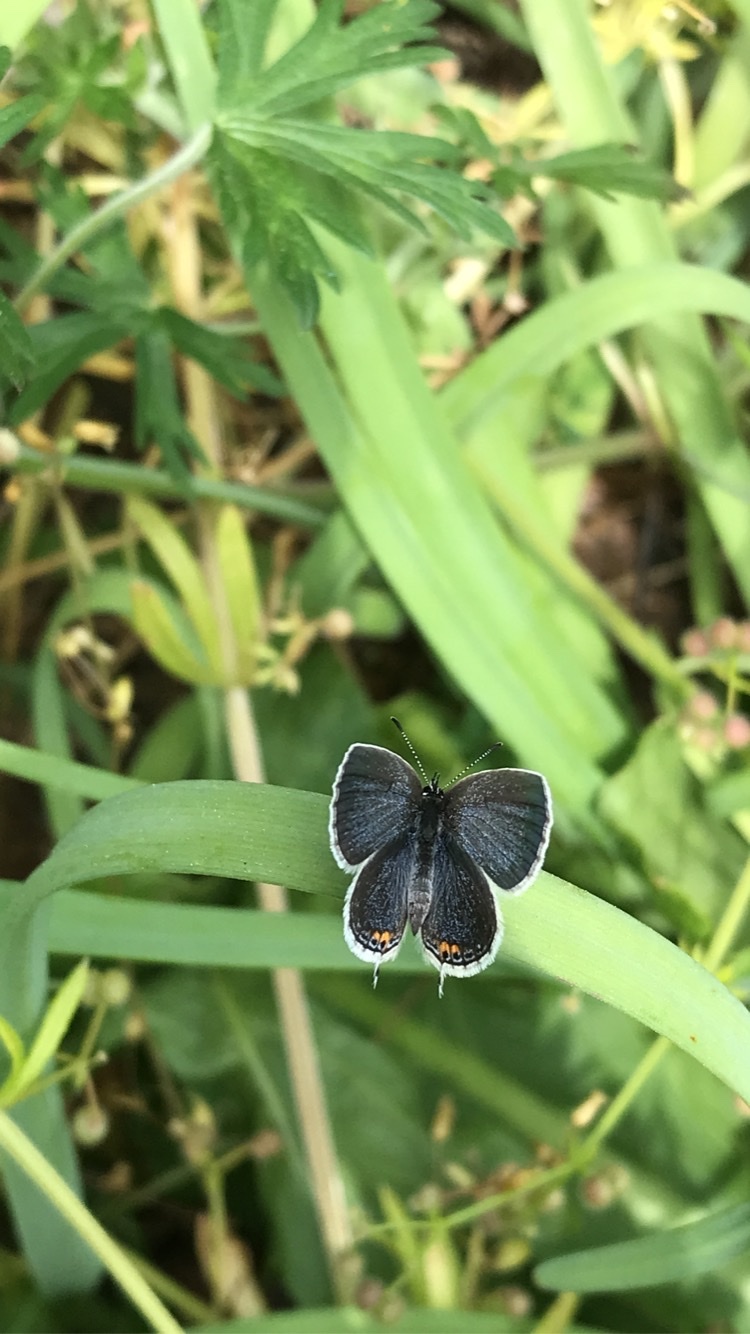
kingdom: Animalia
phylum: Arthropoda
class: Insecta
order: Lepidoptera
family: Lycaenidae
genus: Elkalyce
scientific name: Elkalyce comyntas
